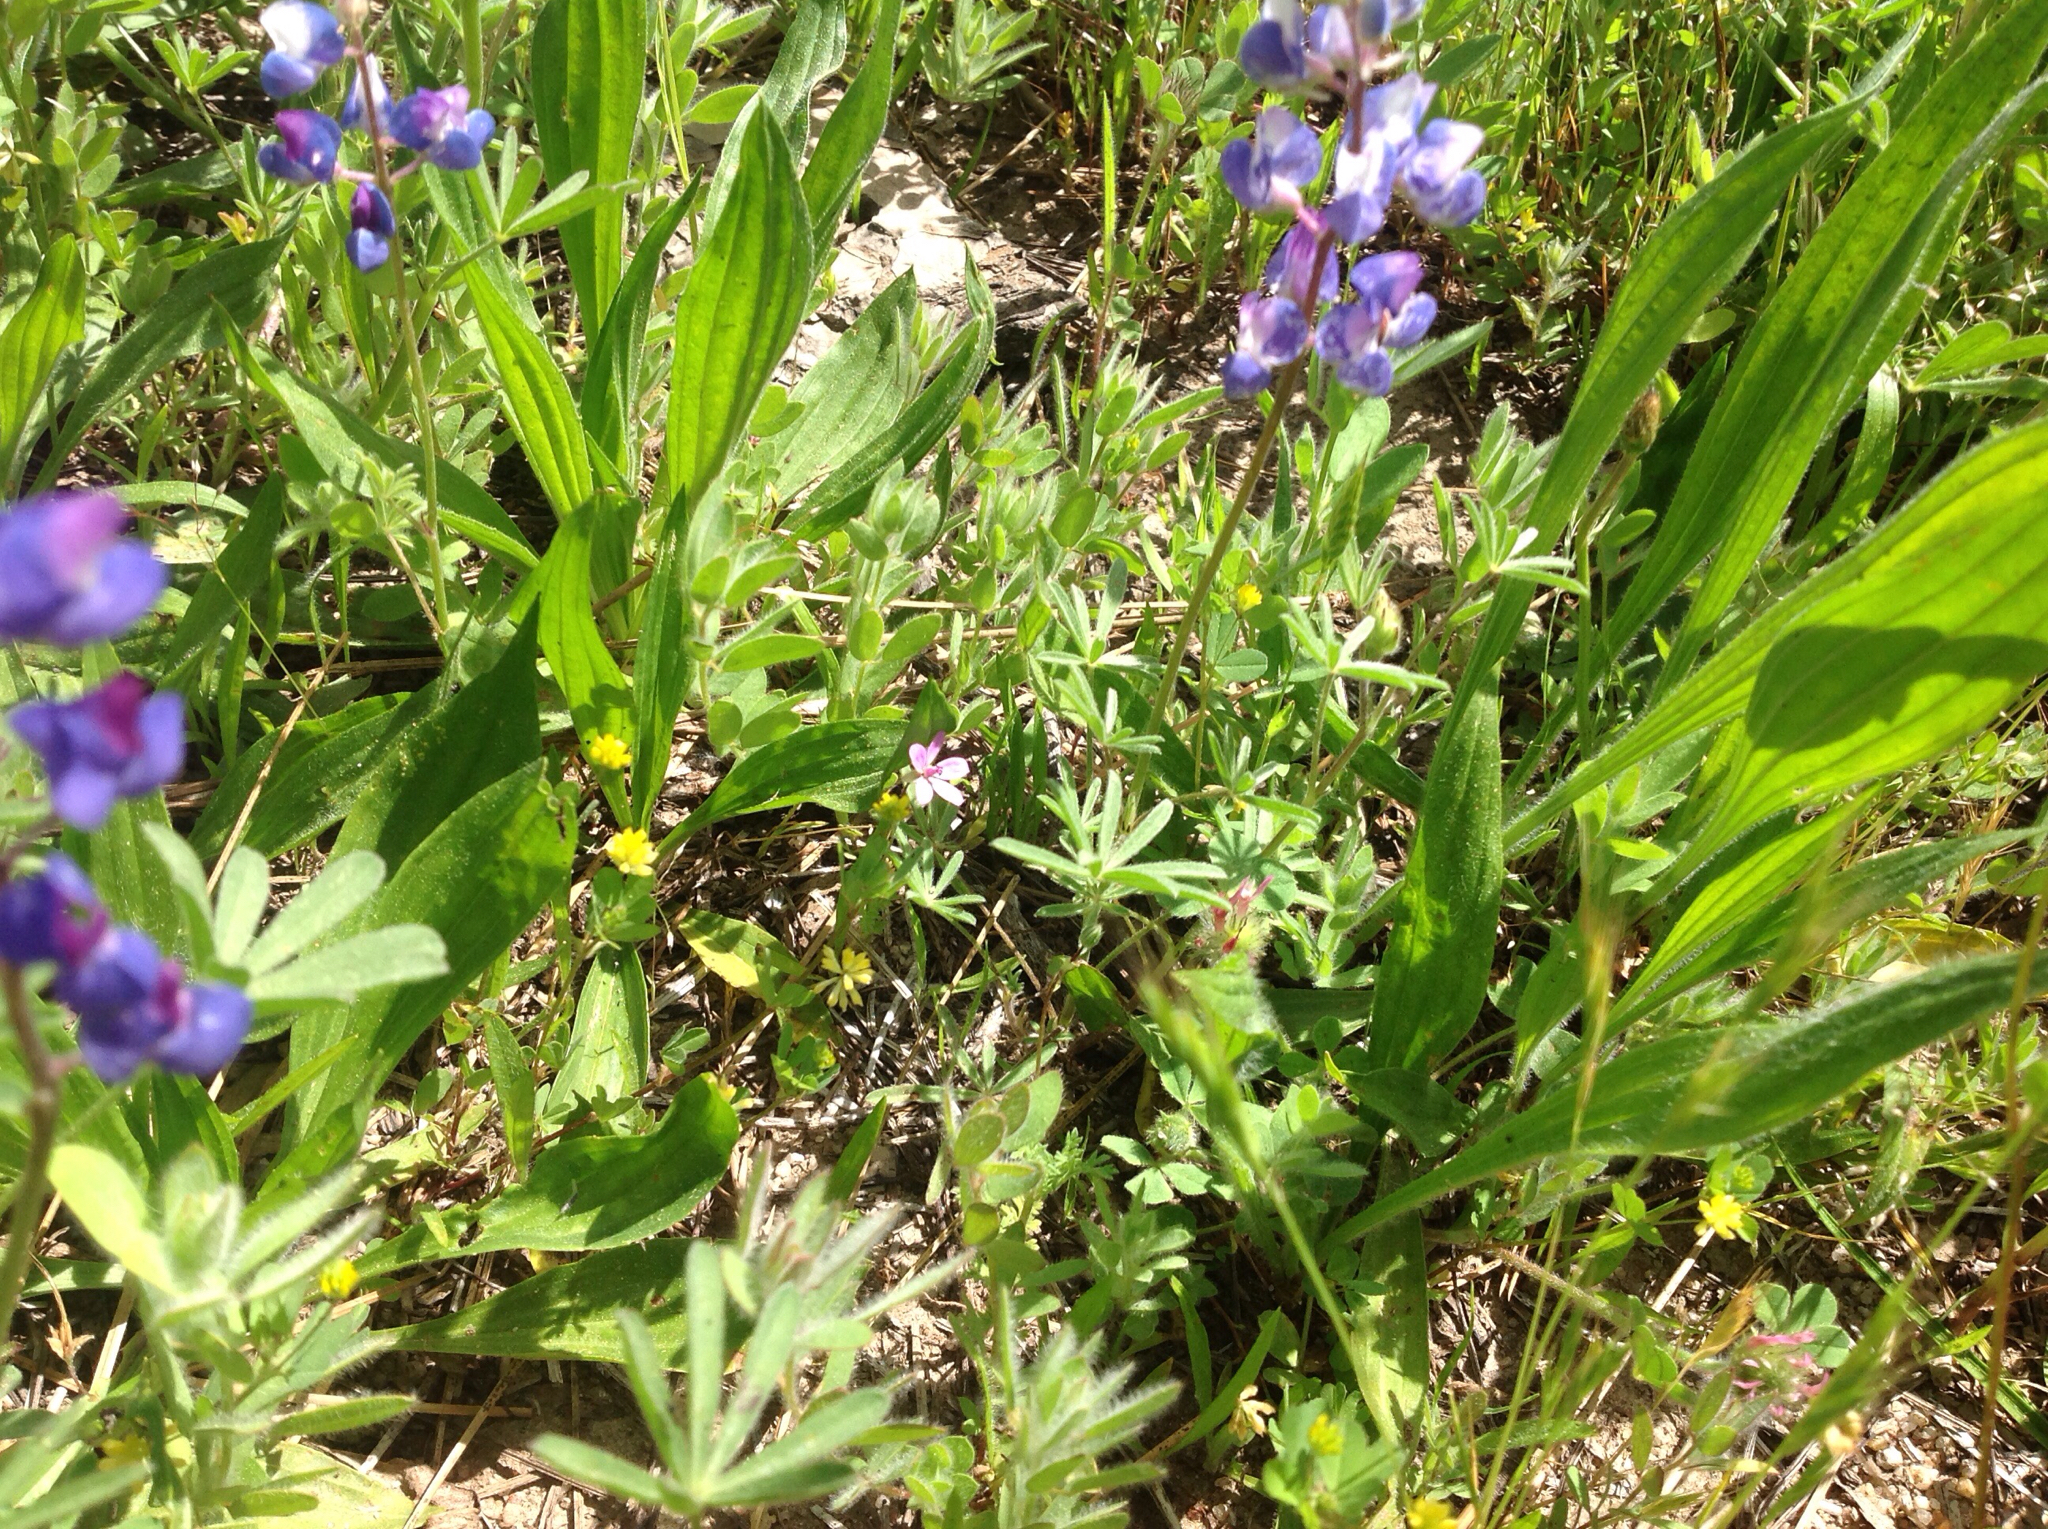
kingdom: Plantae
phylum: Tracheophyta
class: Magnoliopsida
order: Fabales
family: Fabaceae
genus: Trifolium
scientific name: Trifolium dubium
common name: Suckling clover
